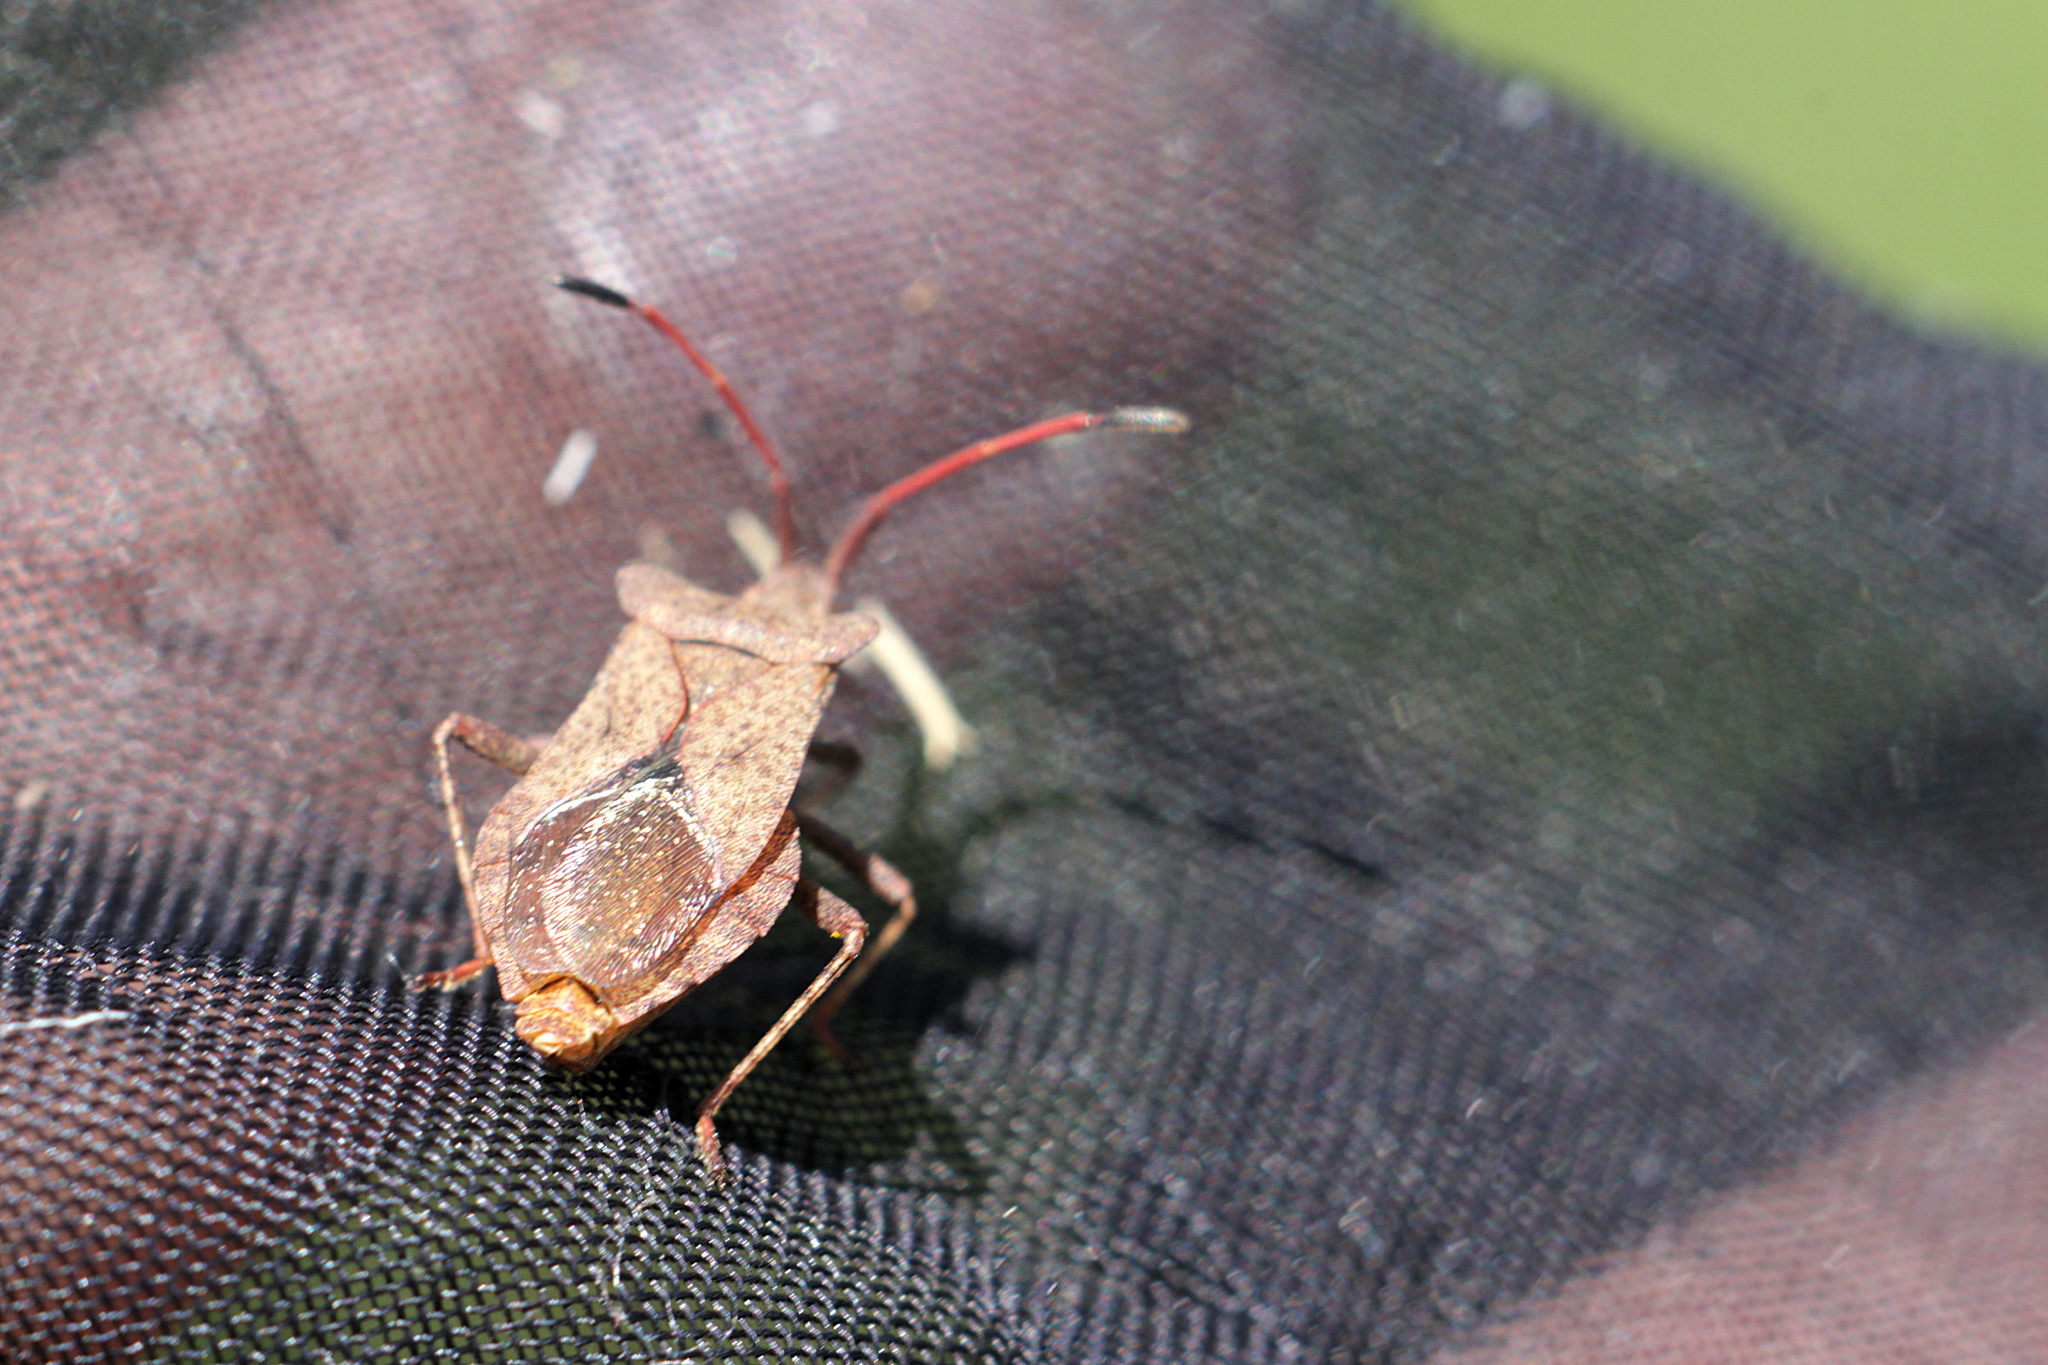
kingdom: Animalia
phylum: Arthropoda
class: Insecta
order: Hemiptera
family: Coreidae
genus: Coreus
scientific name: Coreus marginatus
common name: Dock bug
